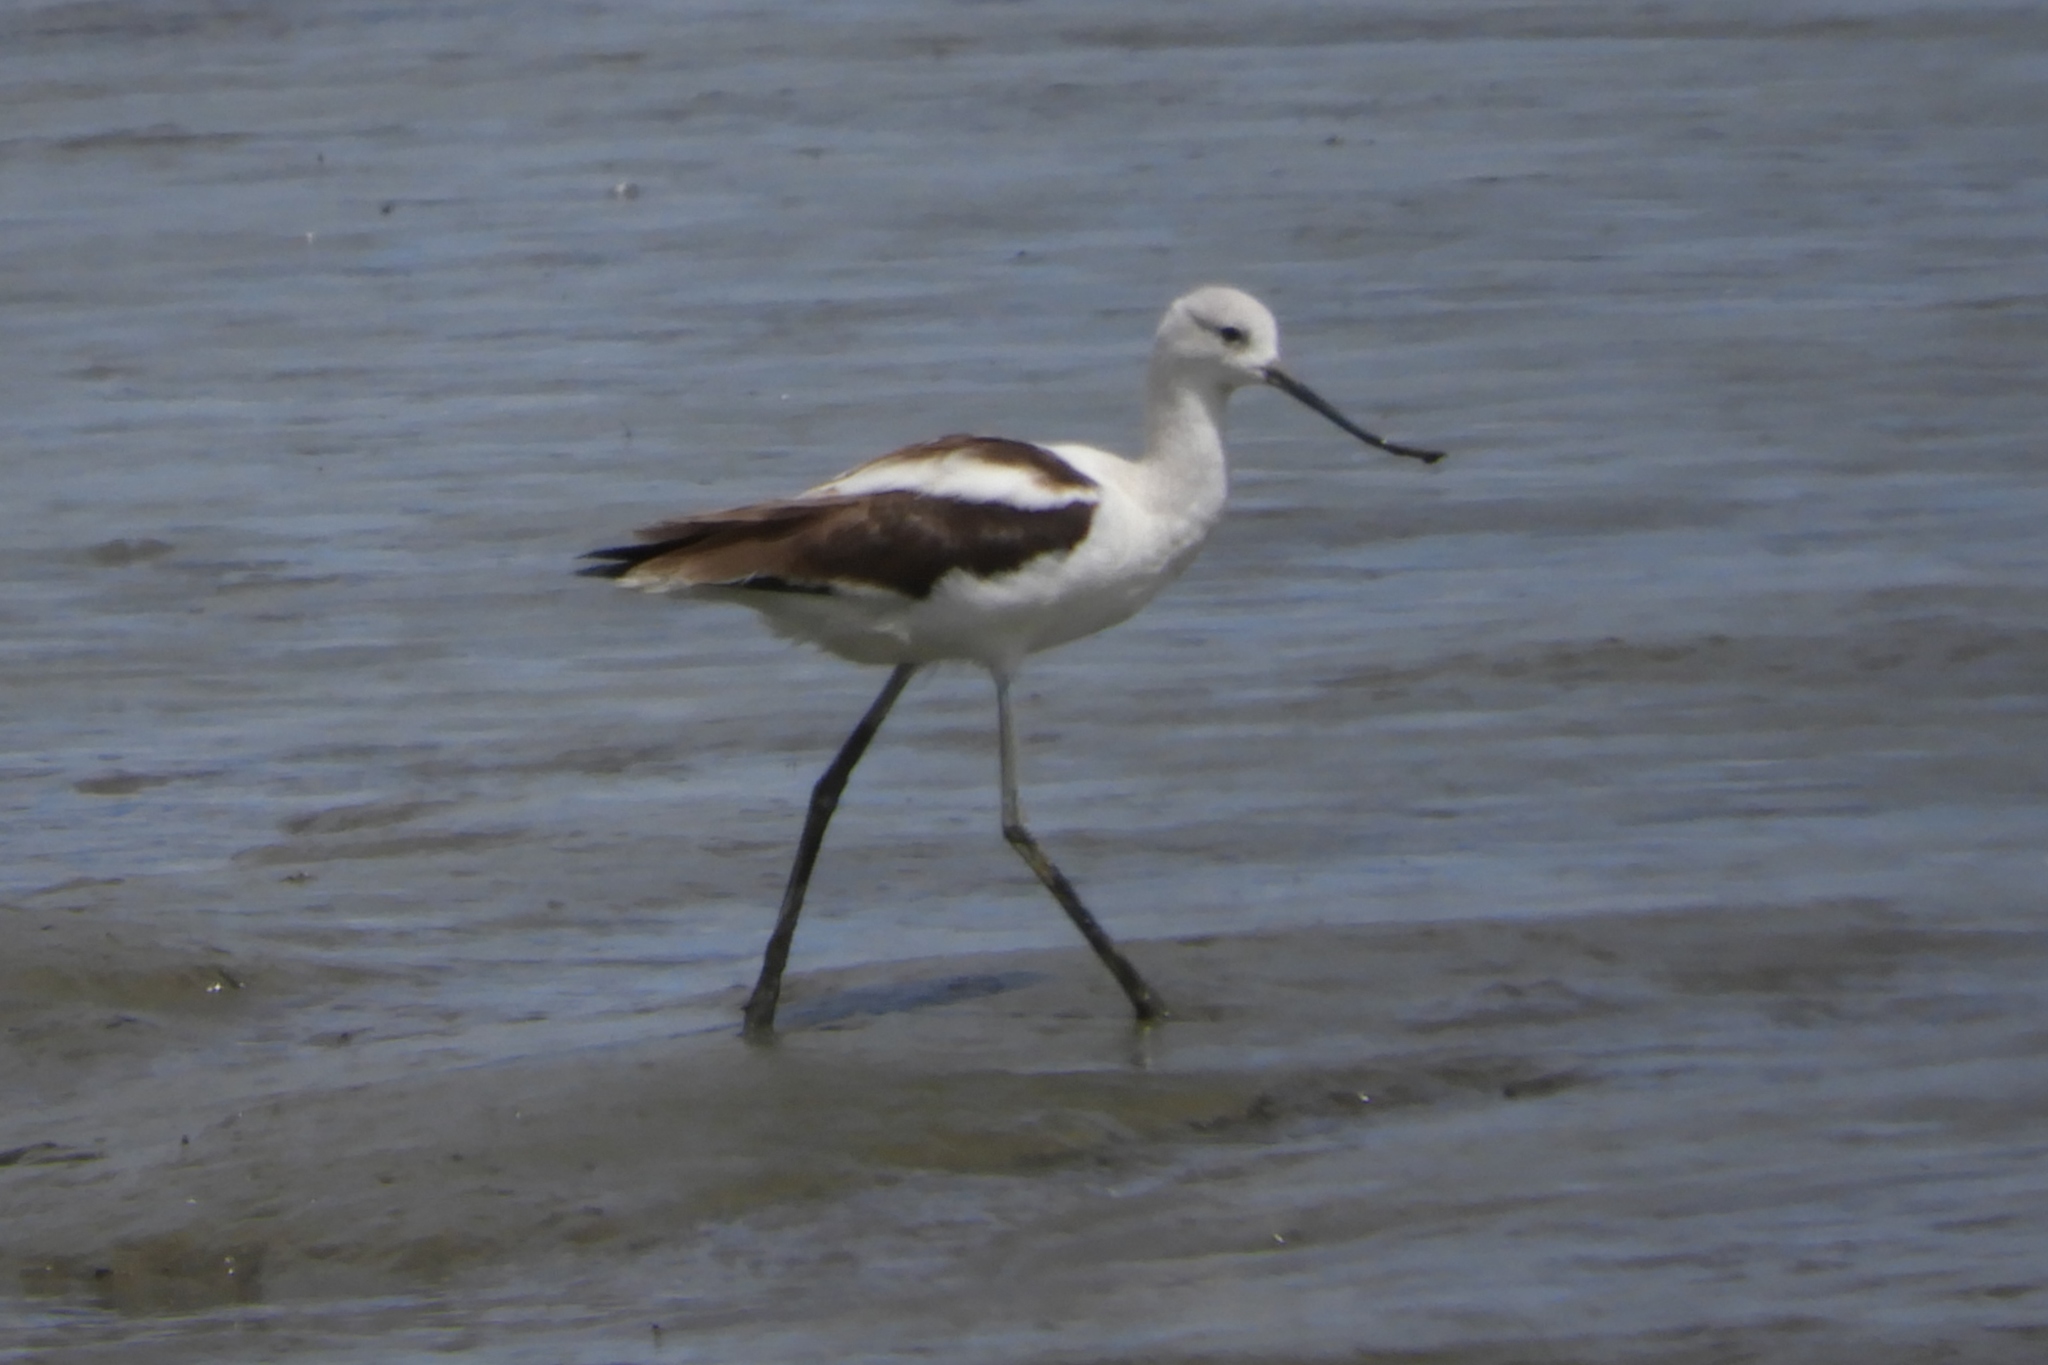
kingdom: Animalia
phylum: Chordata
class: Aves
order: Charadriiformes
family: Recurvirostridae
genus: Recurvirostra
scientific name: Recurvirostra americana
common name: American avocet
